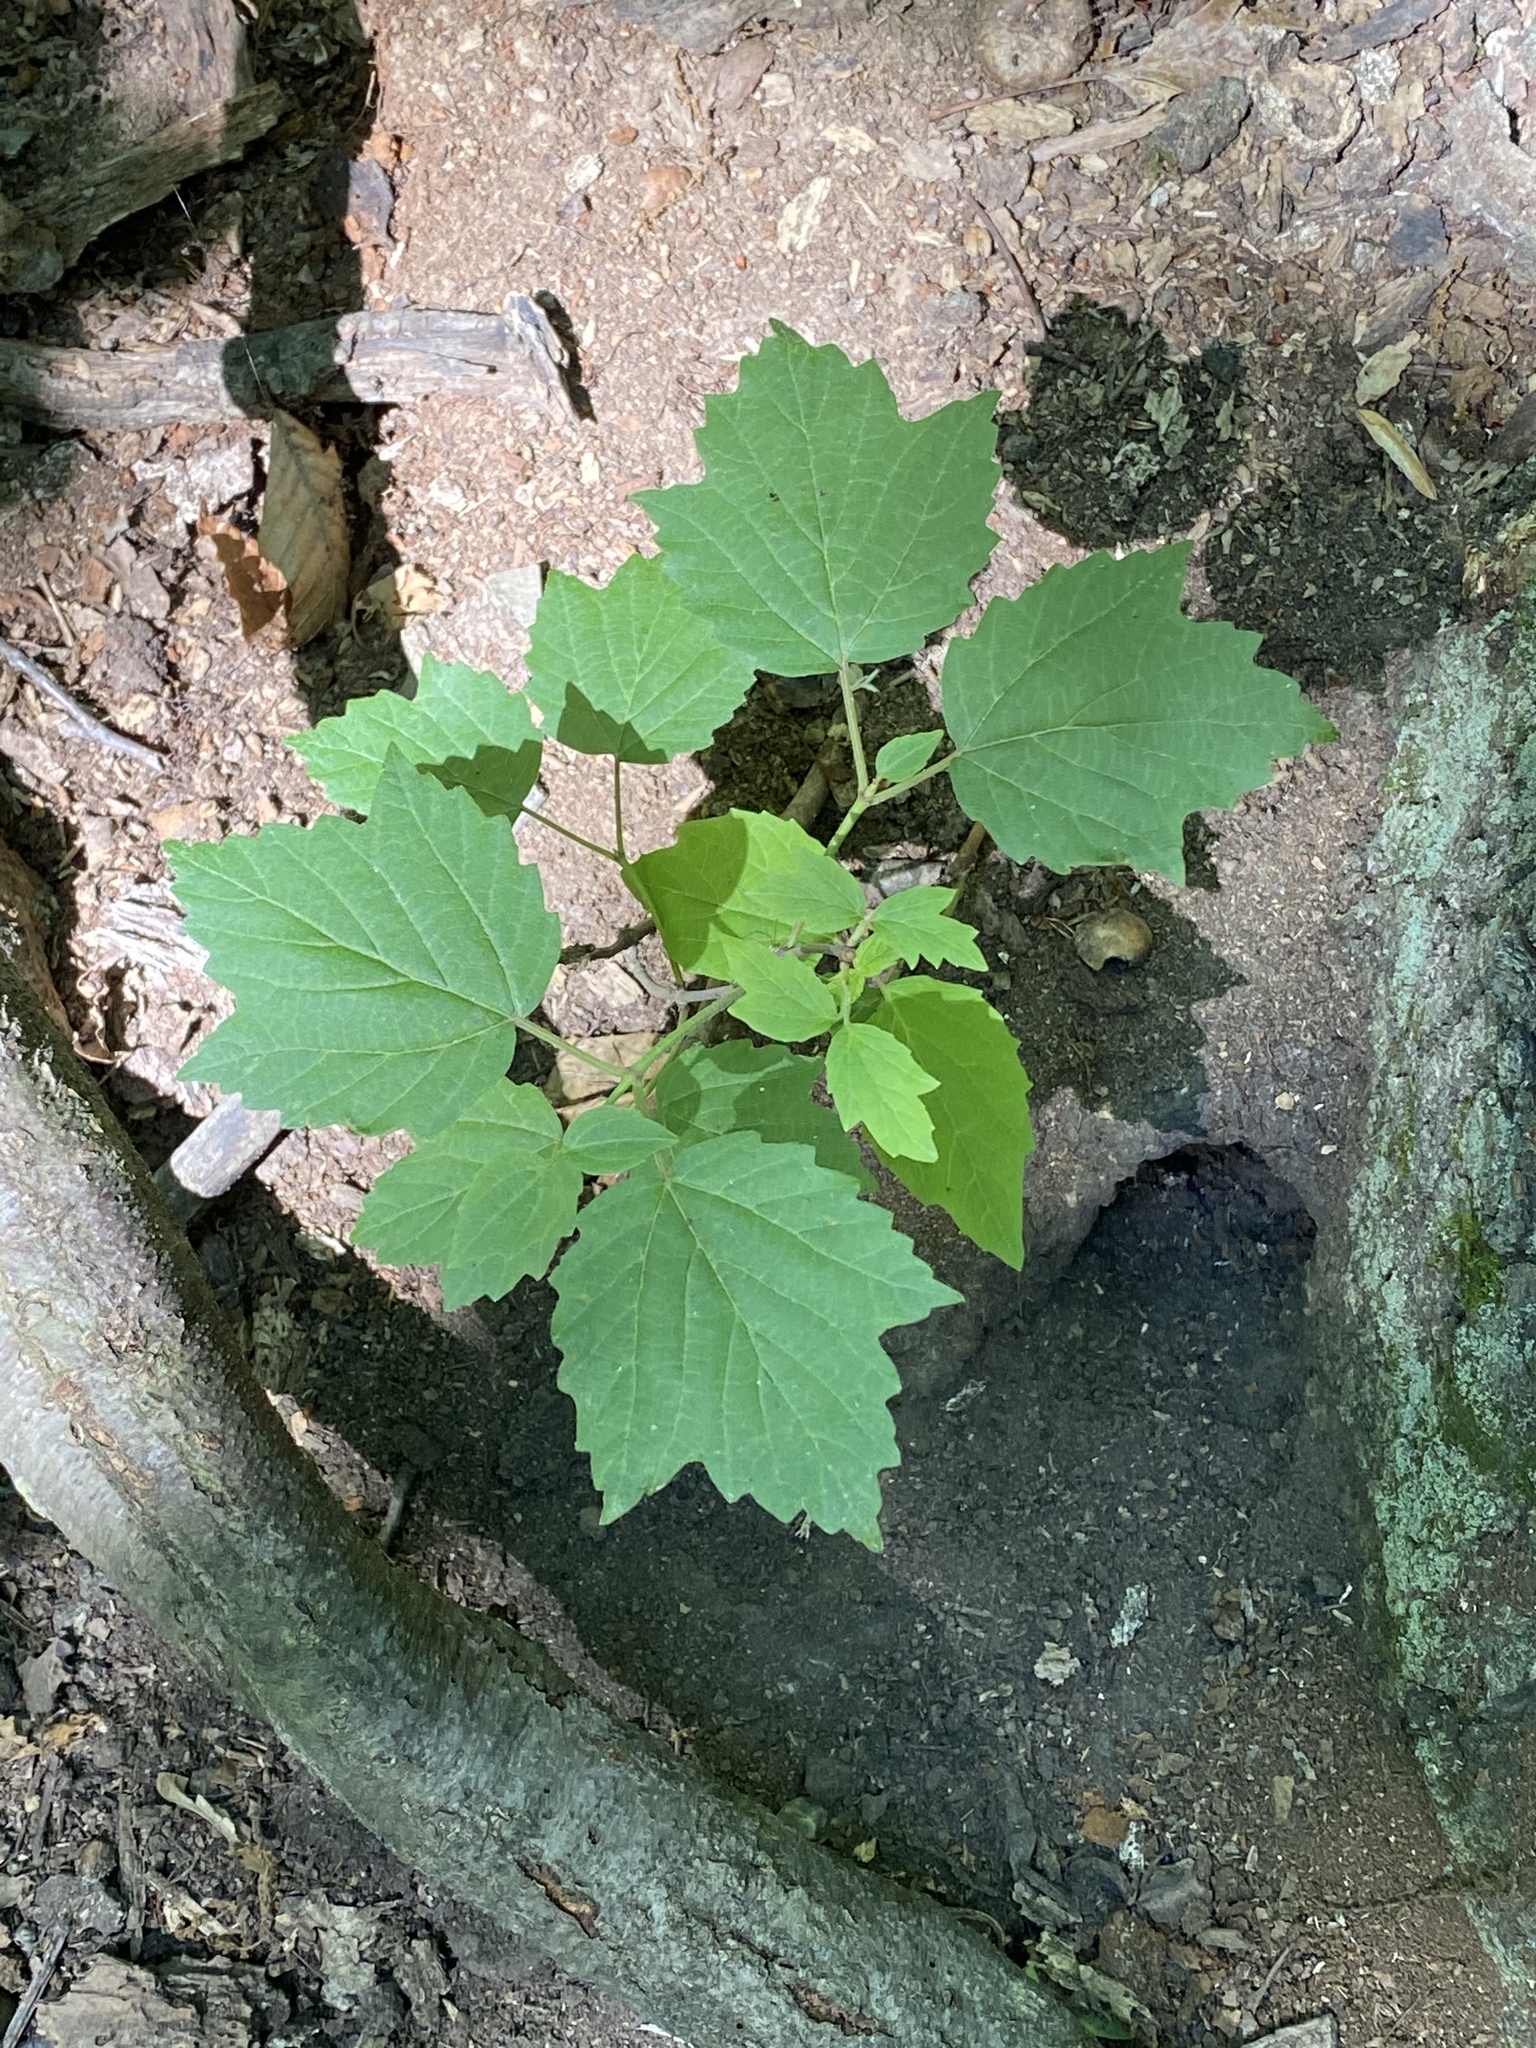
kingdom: Plantae
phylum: Tracheophyta
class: Magnoliopsida
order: Dipsacales
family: Viburnaceae
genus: Viburnum
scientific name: Viburnum acerifolium
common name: Dockmackie
